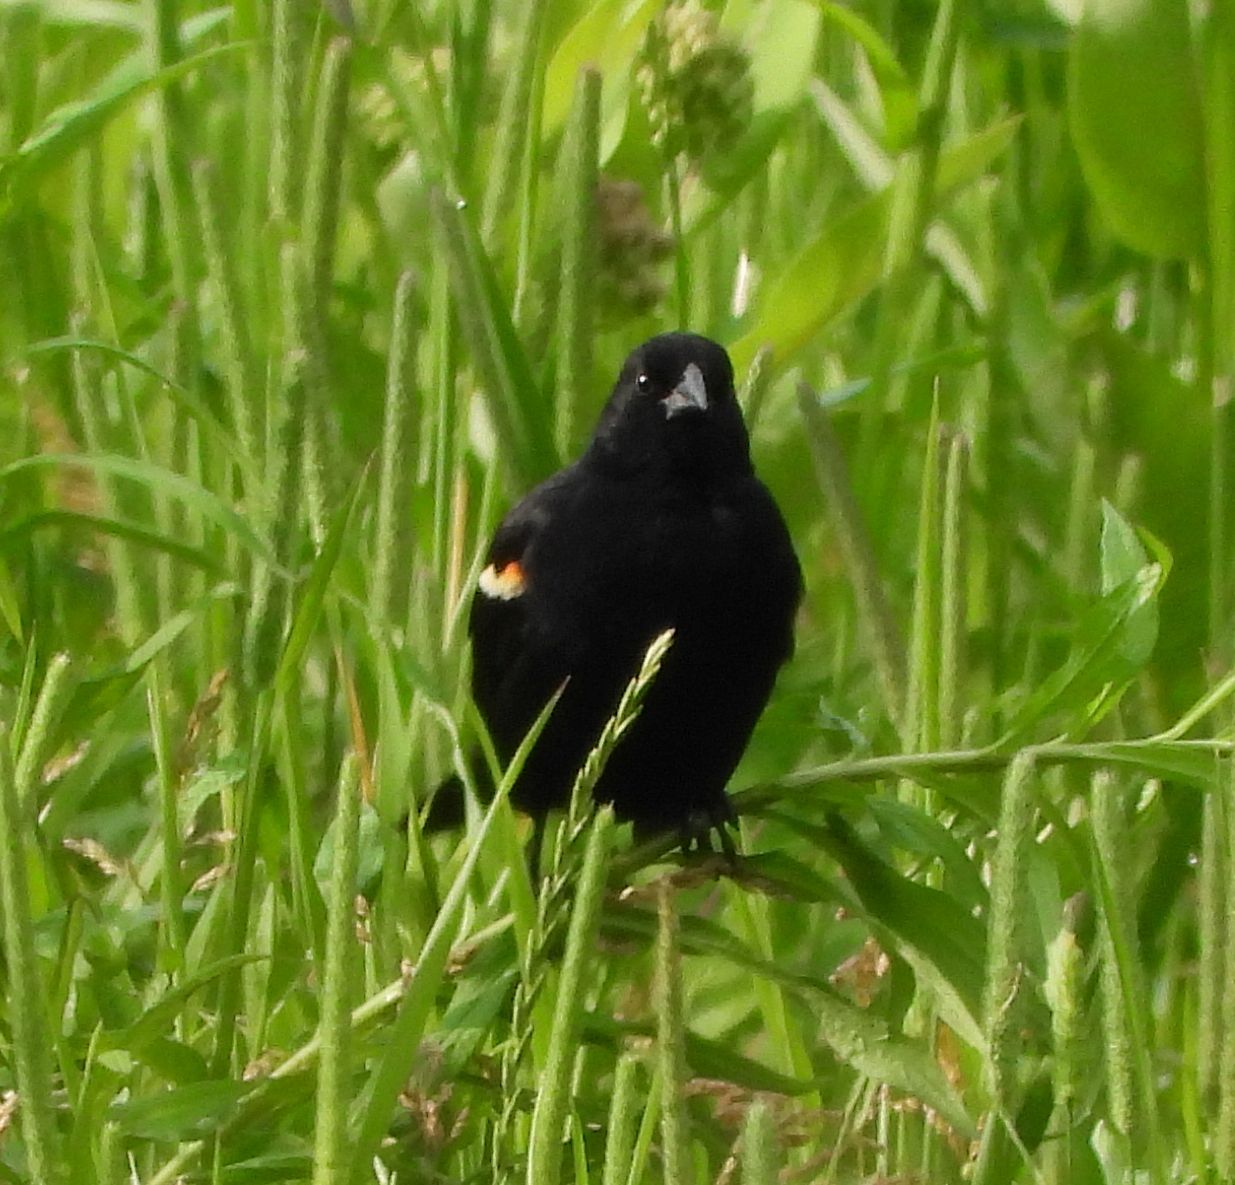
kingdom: Animalia
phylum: Chordata
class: Aves
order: Passeriformes
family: Icteridae
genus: Agelaius
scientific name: Agelaius phoeniceus
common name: Red-winged blackbird
